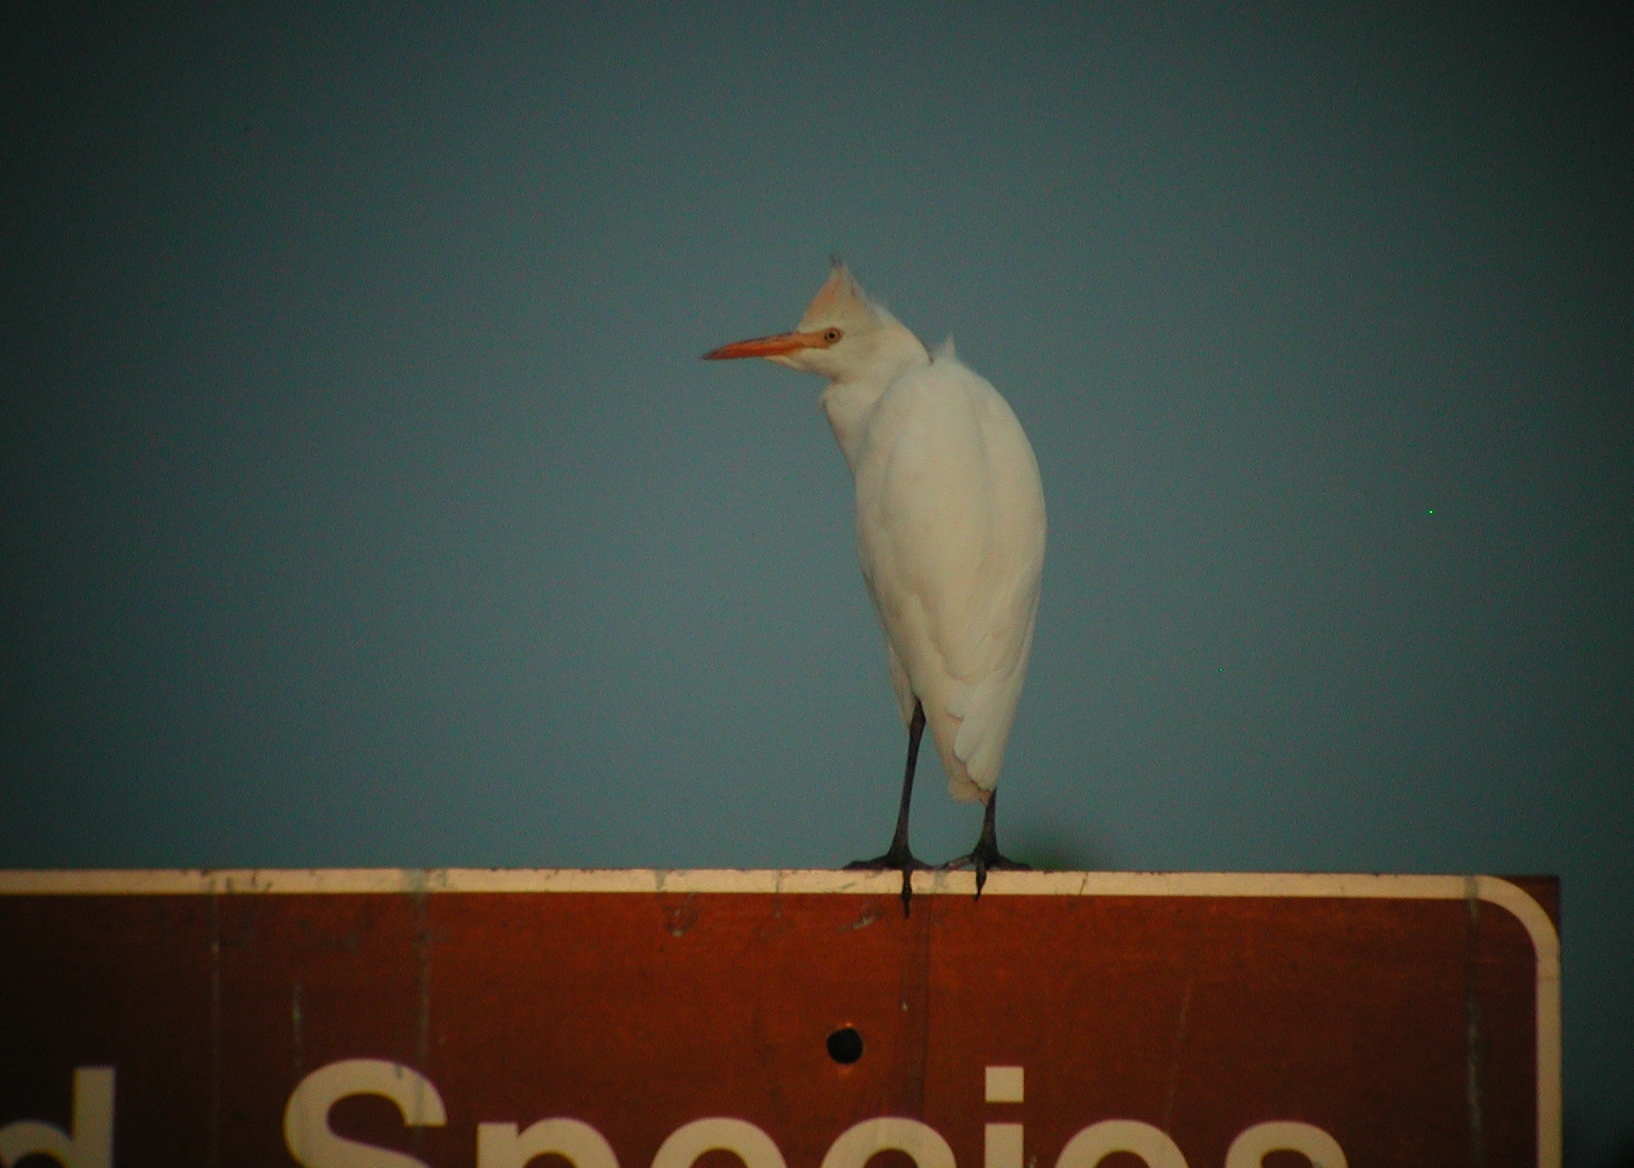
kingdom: Animalia
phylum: Chordata
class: Aves
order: Pelecaniformes
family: Ardeidae
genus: Bubulcus
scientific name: Bubulcus ibis
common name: Cattle egret
